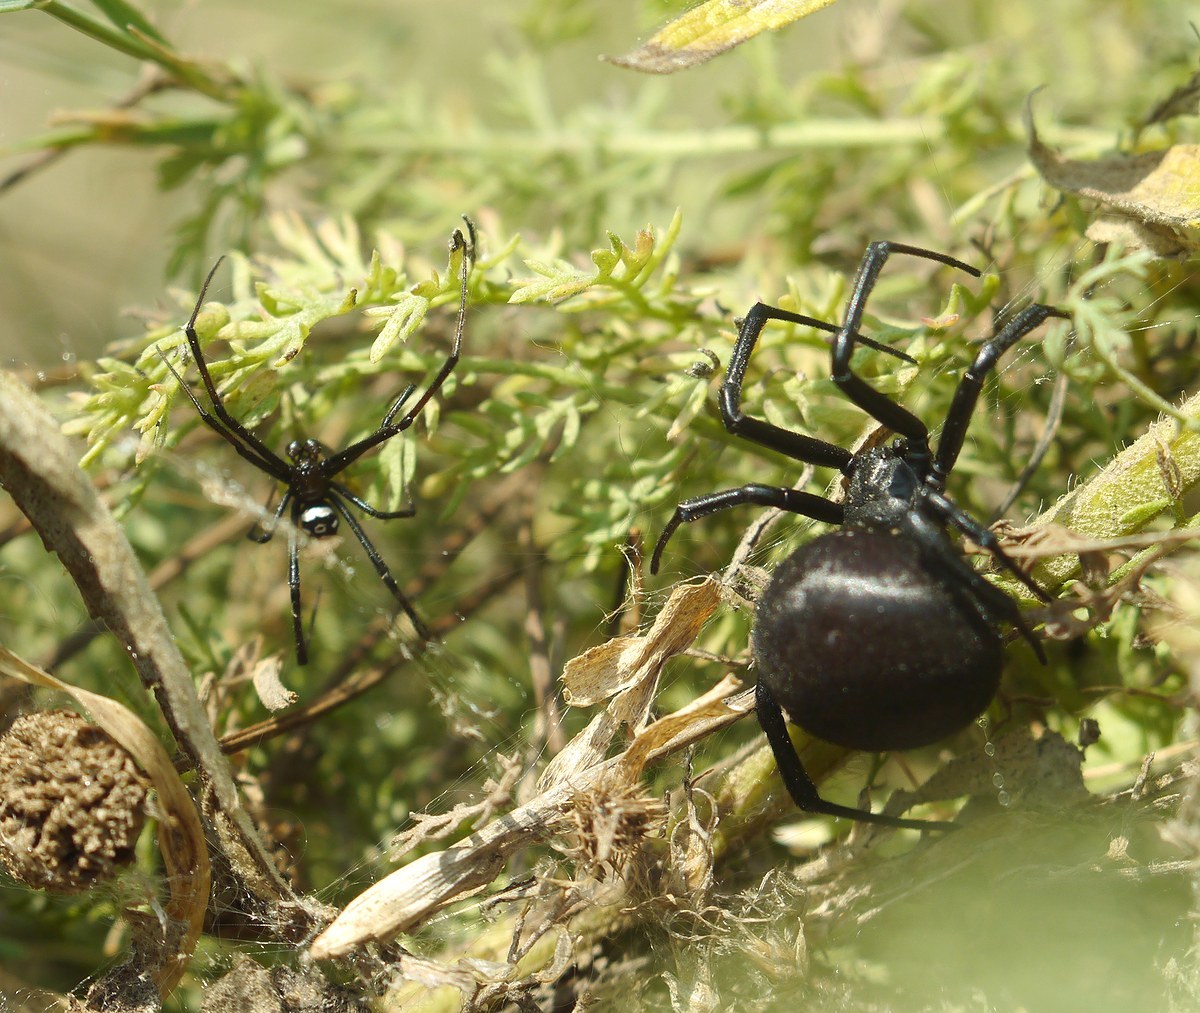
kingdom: Animalia
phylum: Arthropoda
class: Arachnida
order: Araneae
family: Theridiidae
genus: Latrodectus
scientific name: Latrodectus tredecimguttatus
